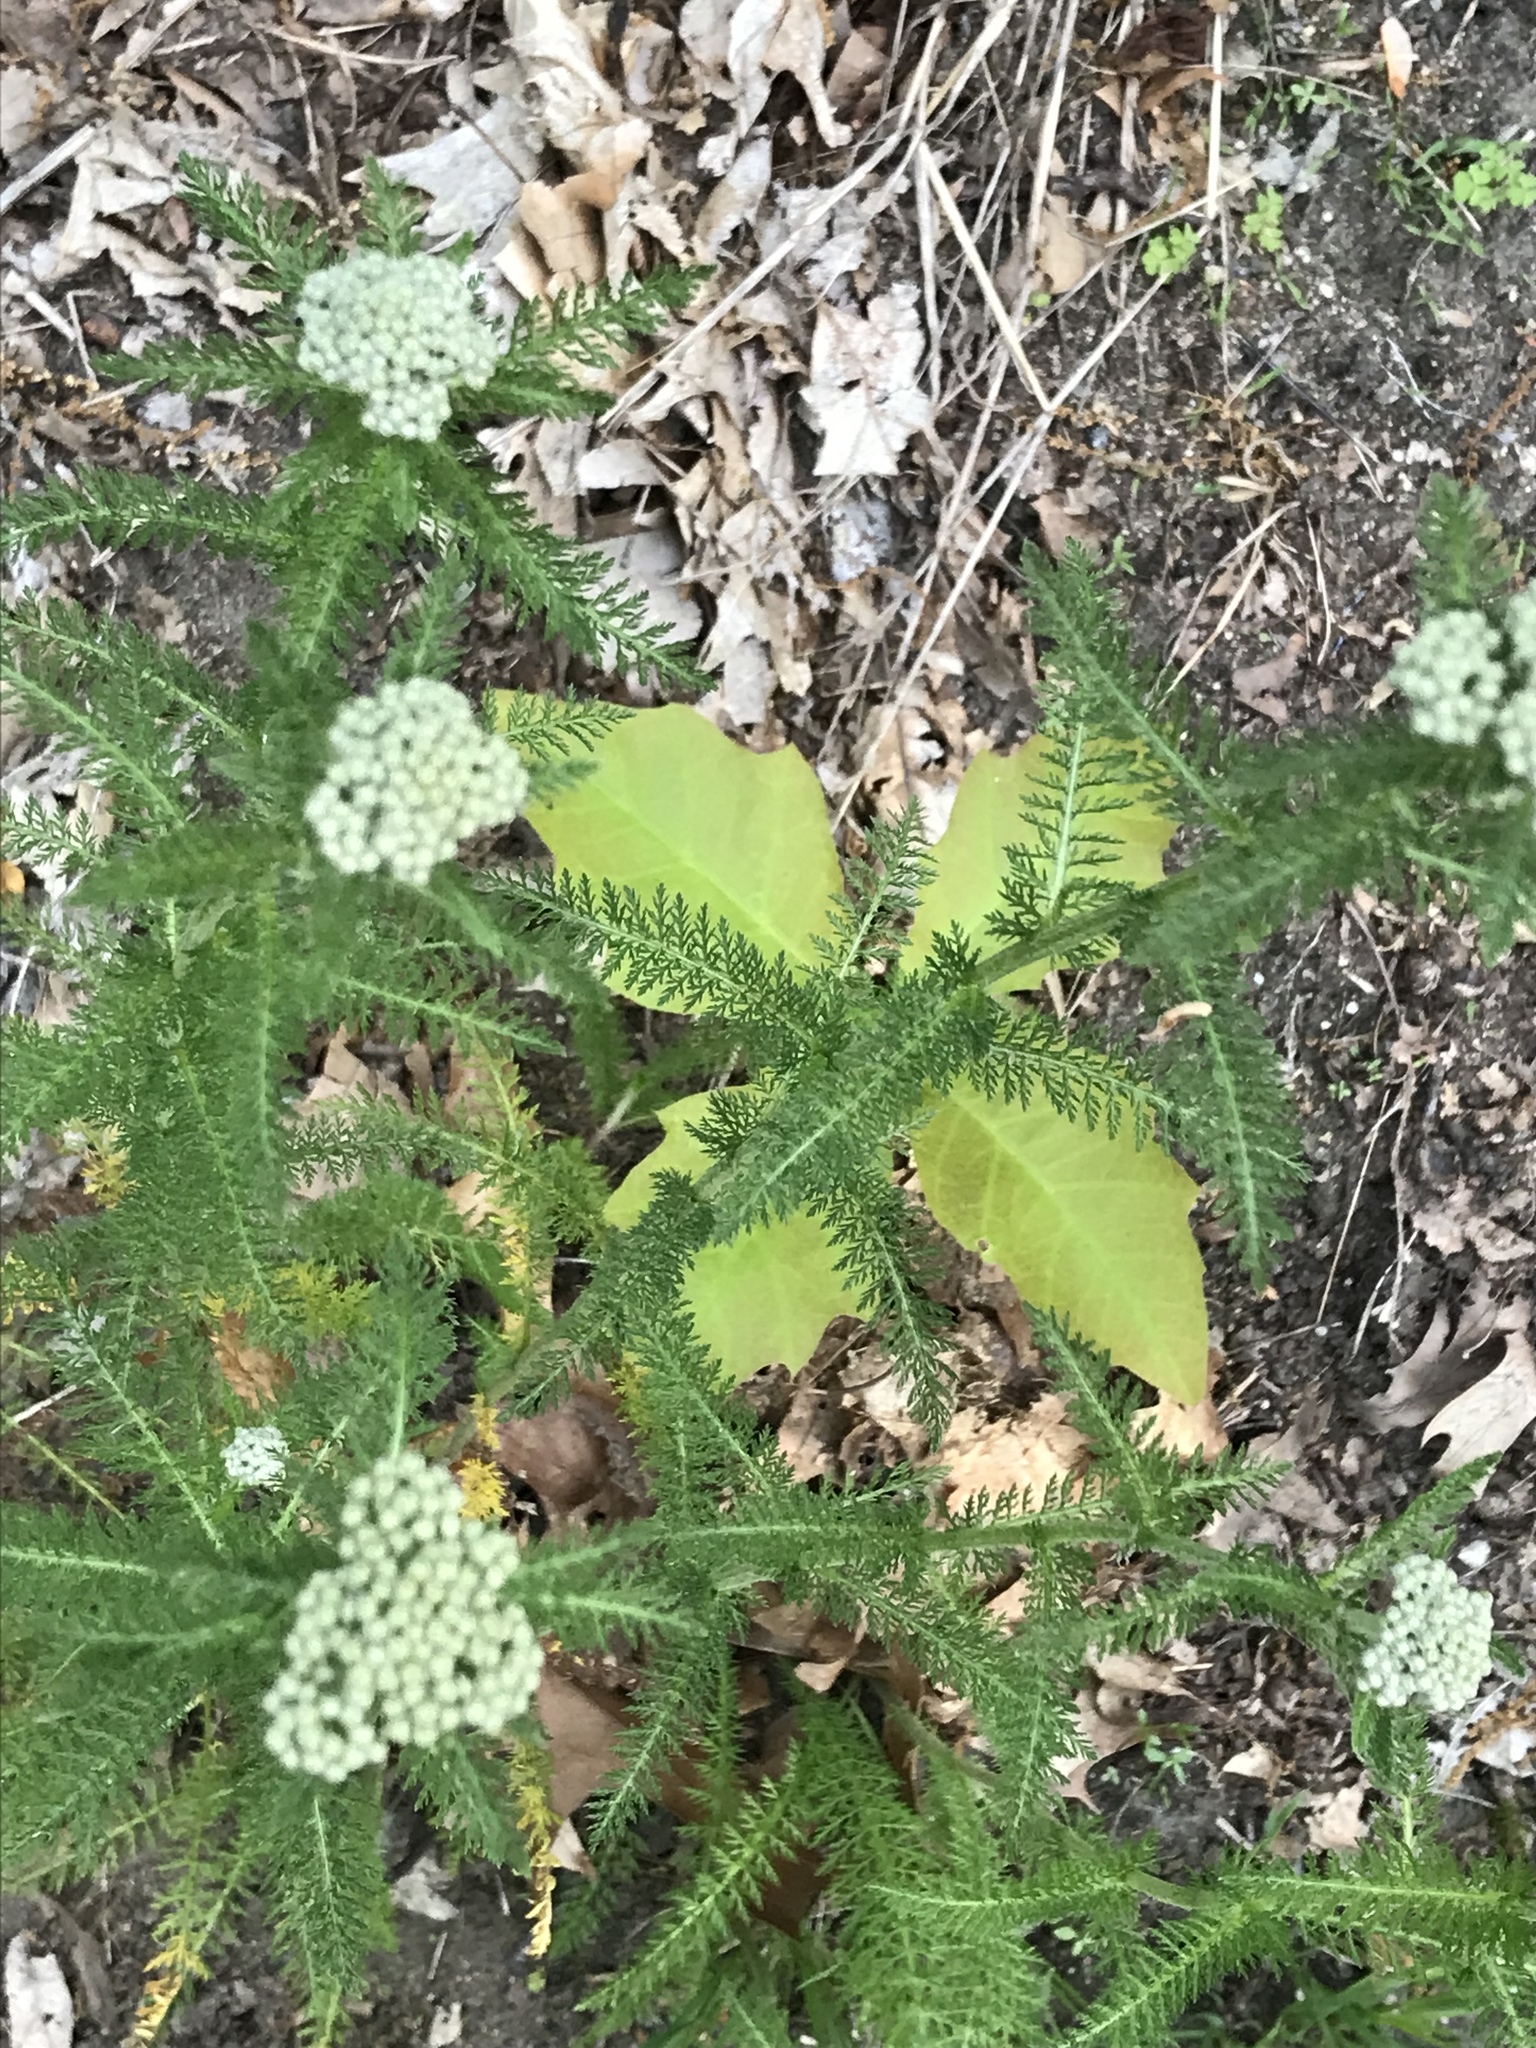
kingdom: Plantae
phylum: Tracheophyta
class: Magnoliopsida
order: Asterales
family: Asteraceae
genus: Achillea
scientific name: Achillea millefolium
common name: Yarrow
